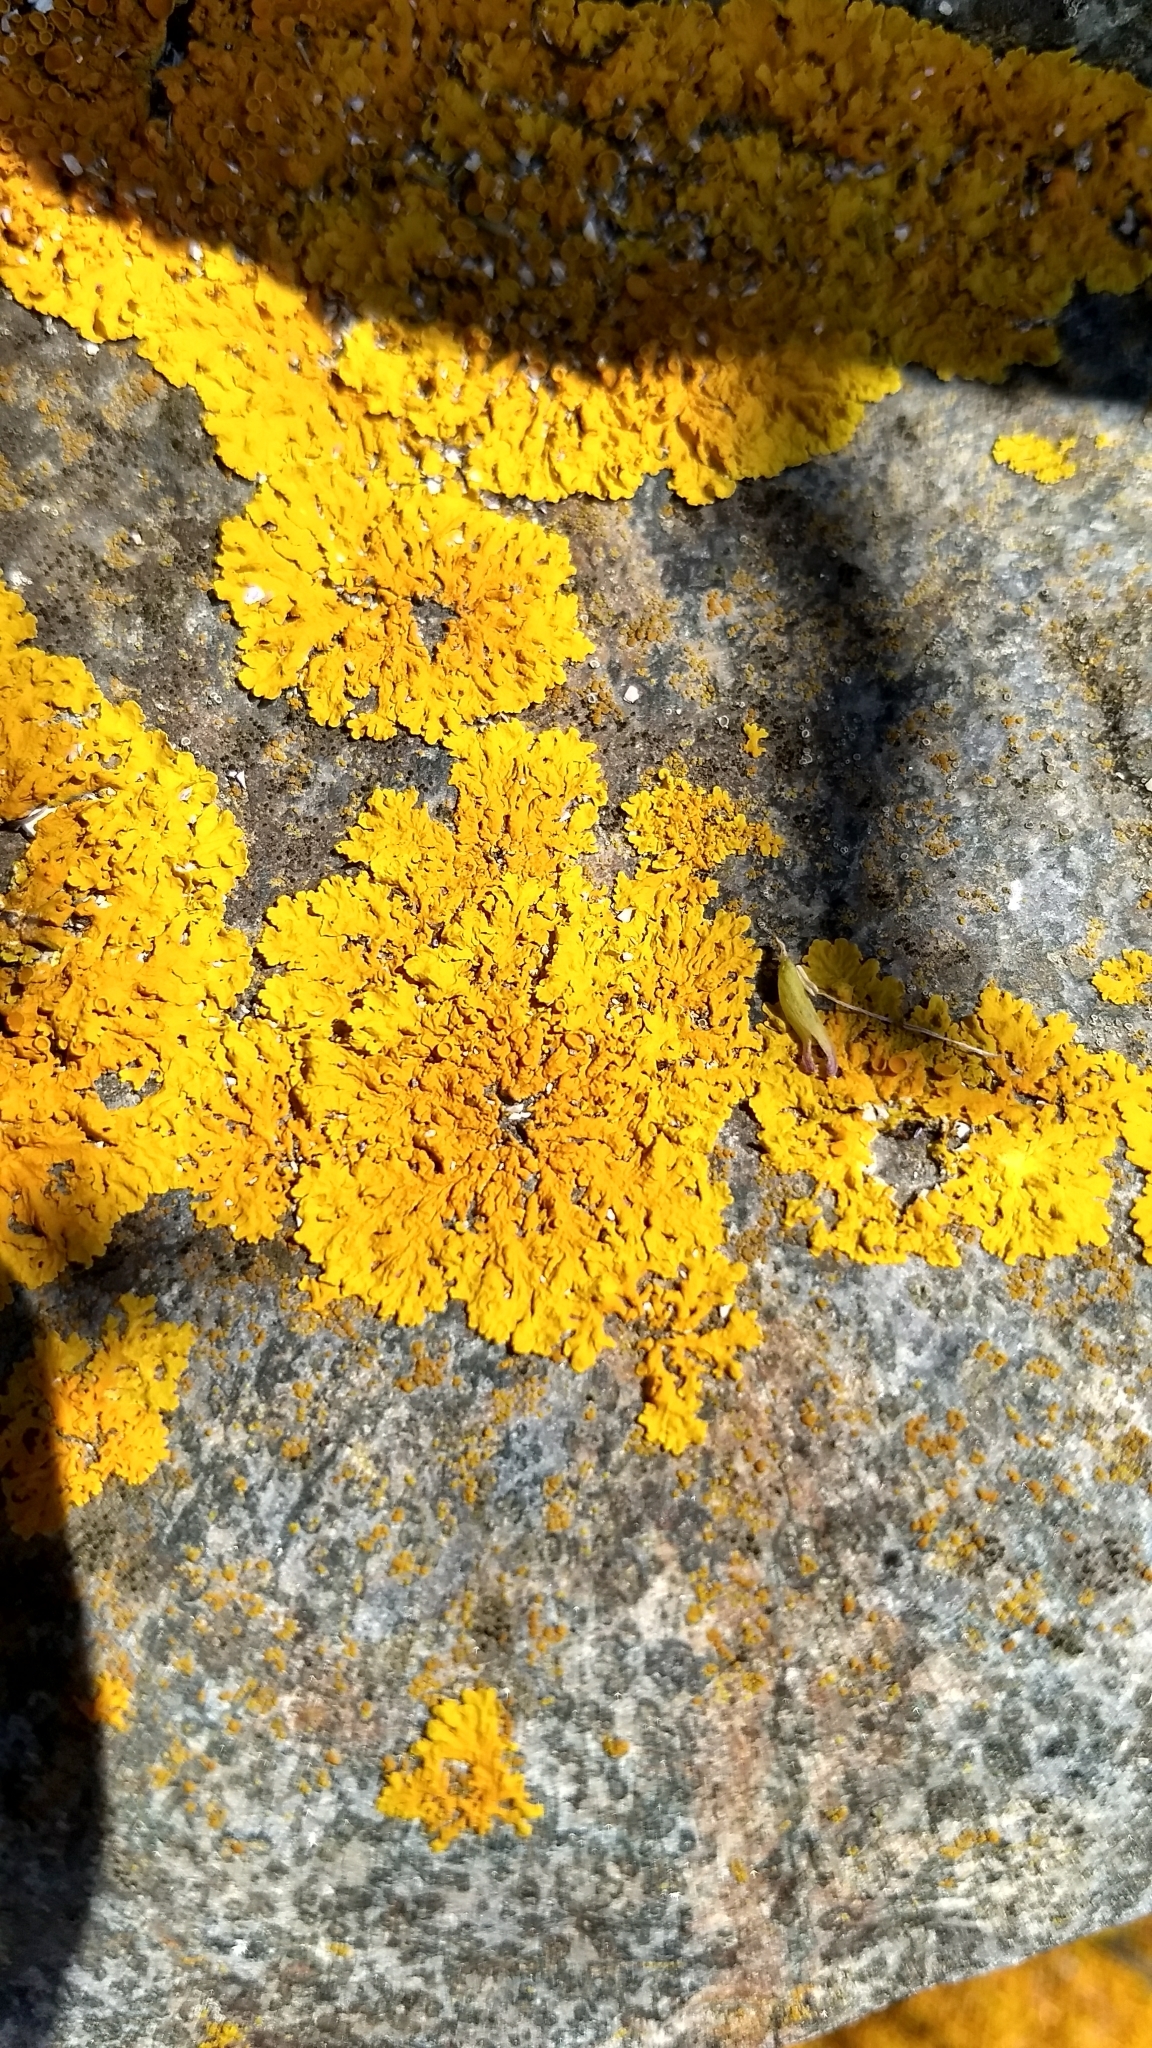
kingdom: Fungi
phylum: Ascomycota
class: Lecanoromycetes
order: Teloschistales
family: Teloschistaceae
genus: Xanthoria
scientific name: Xanthoria parietina
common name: Common orange lichen
